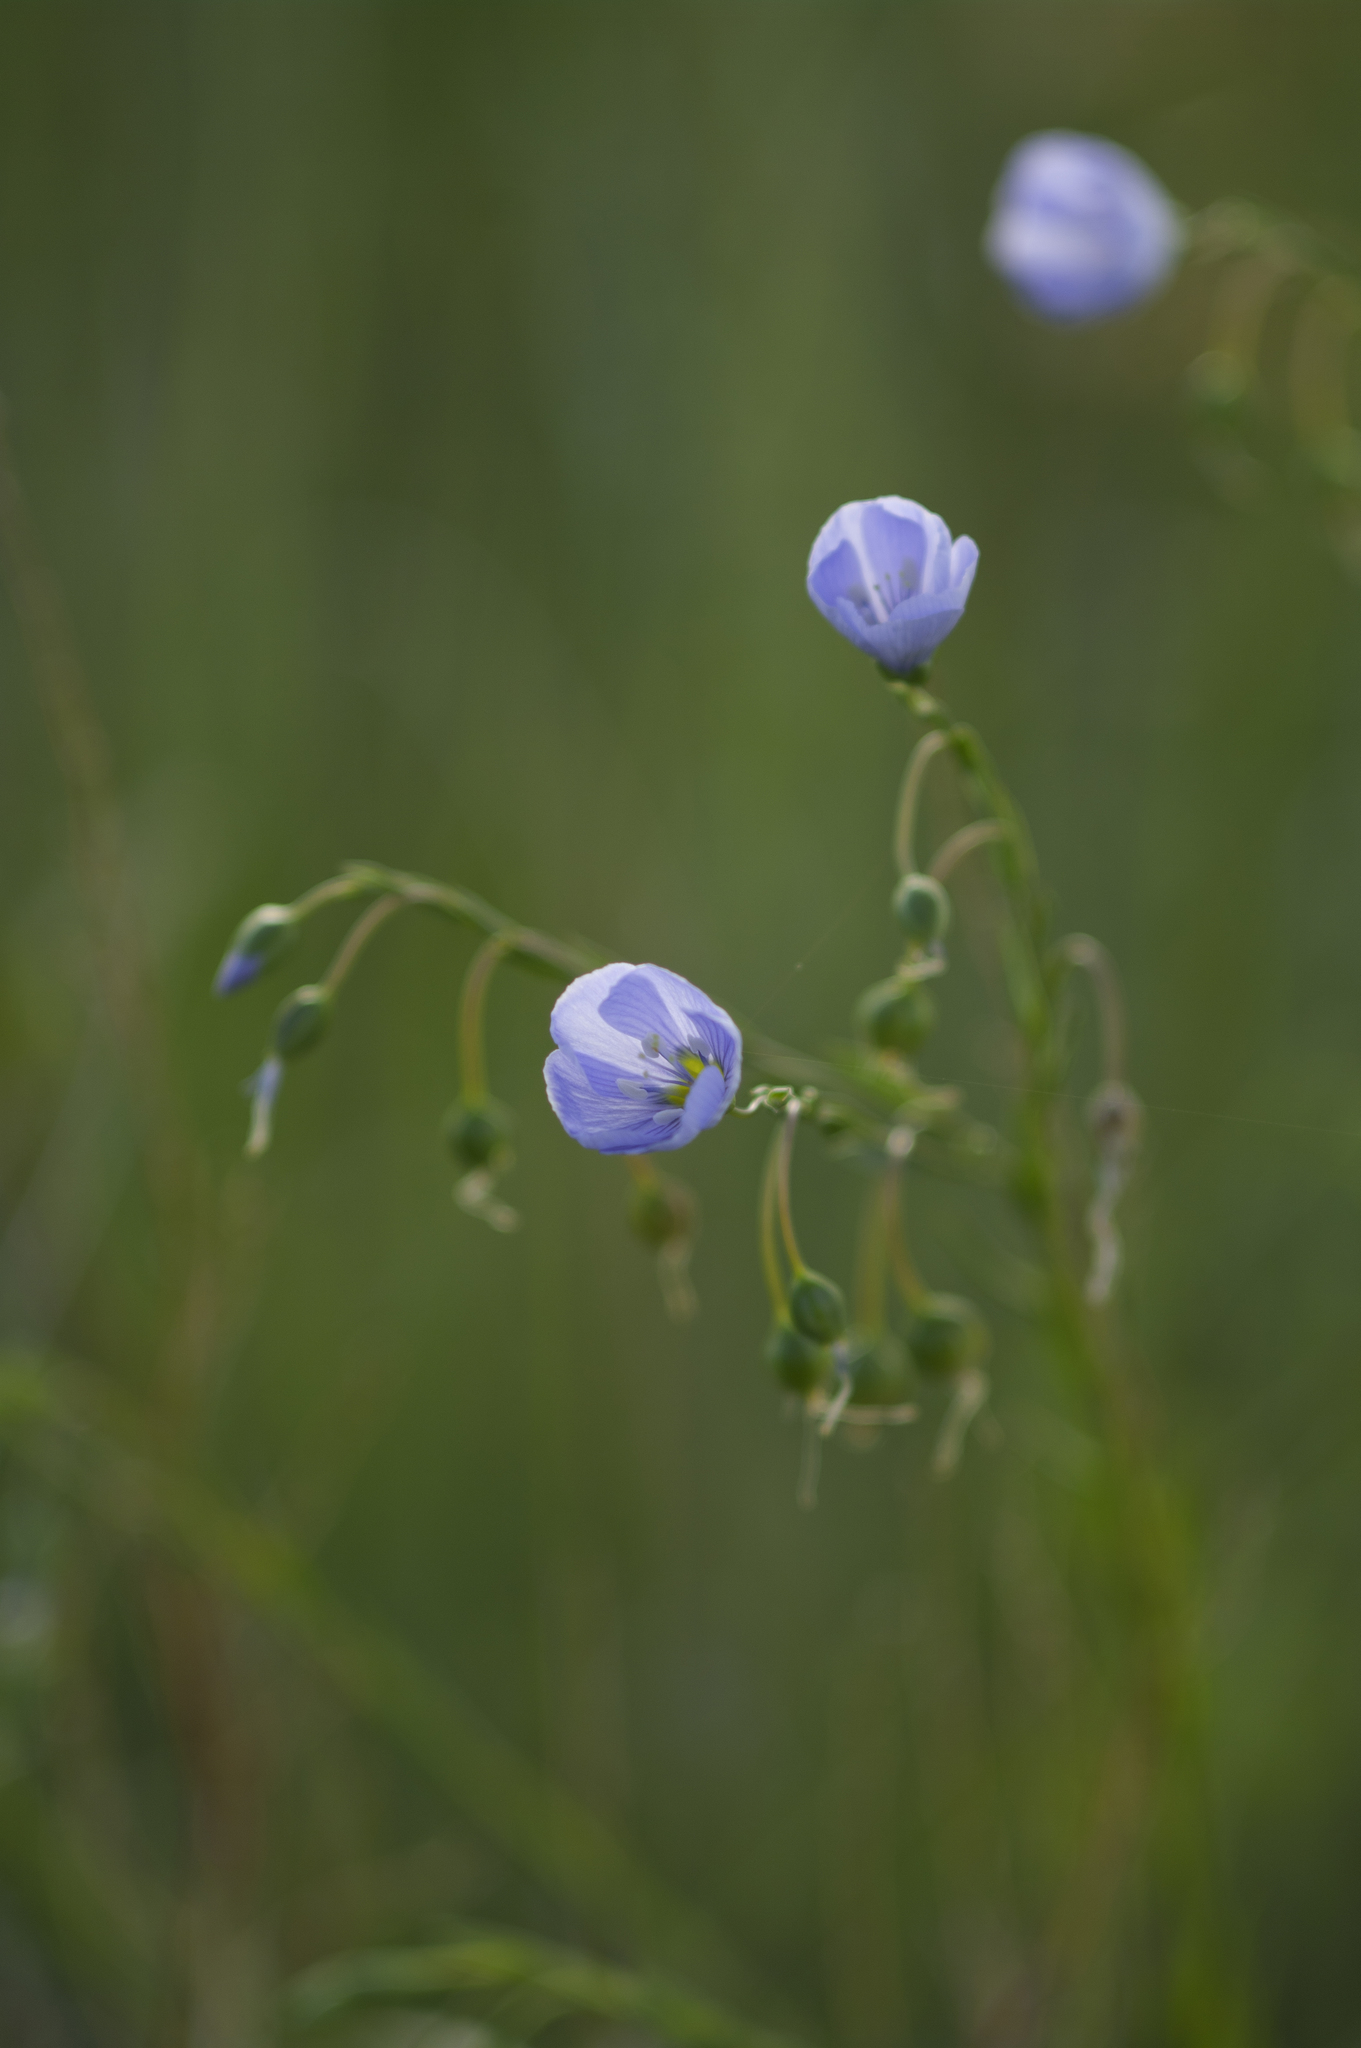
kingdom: Plantae
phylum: Tracheophyta
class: Magnoliopsida
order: Malpighiales
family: Linaceae
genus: Linum
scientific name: Linum lewisii
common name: Prairie flax
